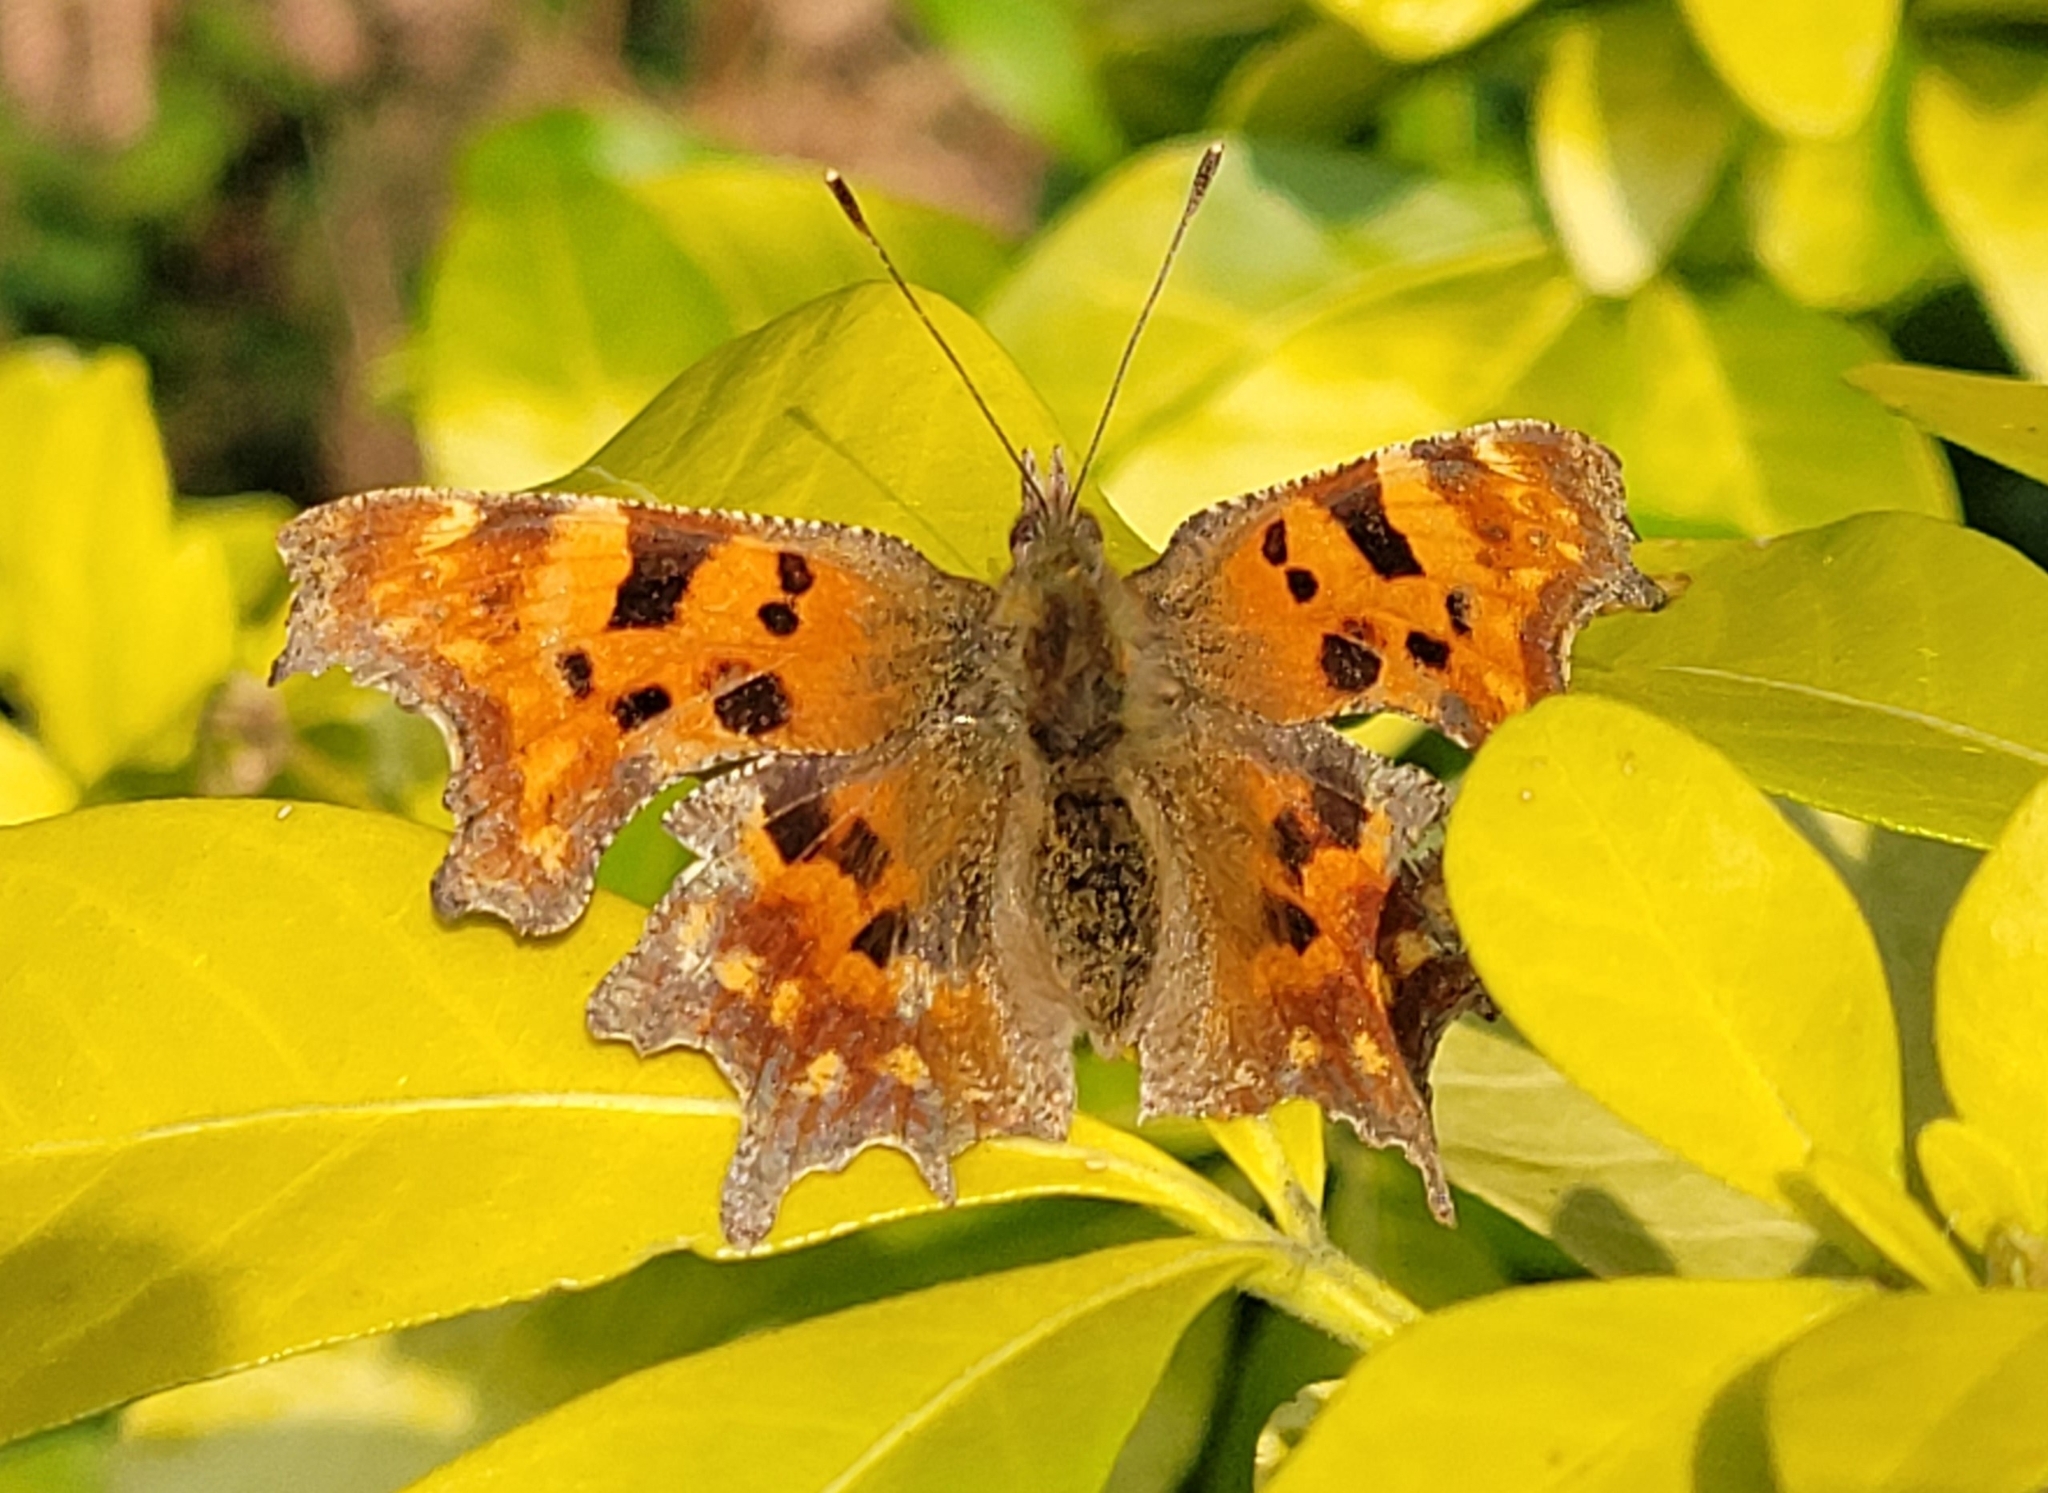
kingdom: Animalia
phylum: Arthropoda
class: Insecta
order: Lepidoptera
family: Nymphalidae
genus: Polygonia
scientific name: Polygonia c-album
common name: Comma
